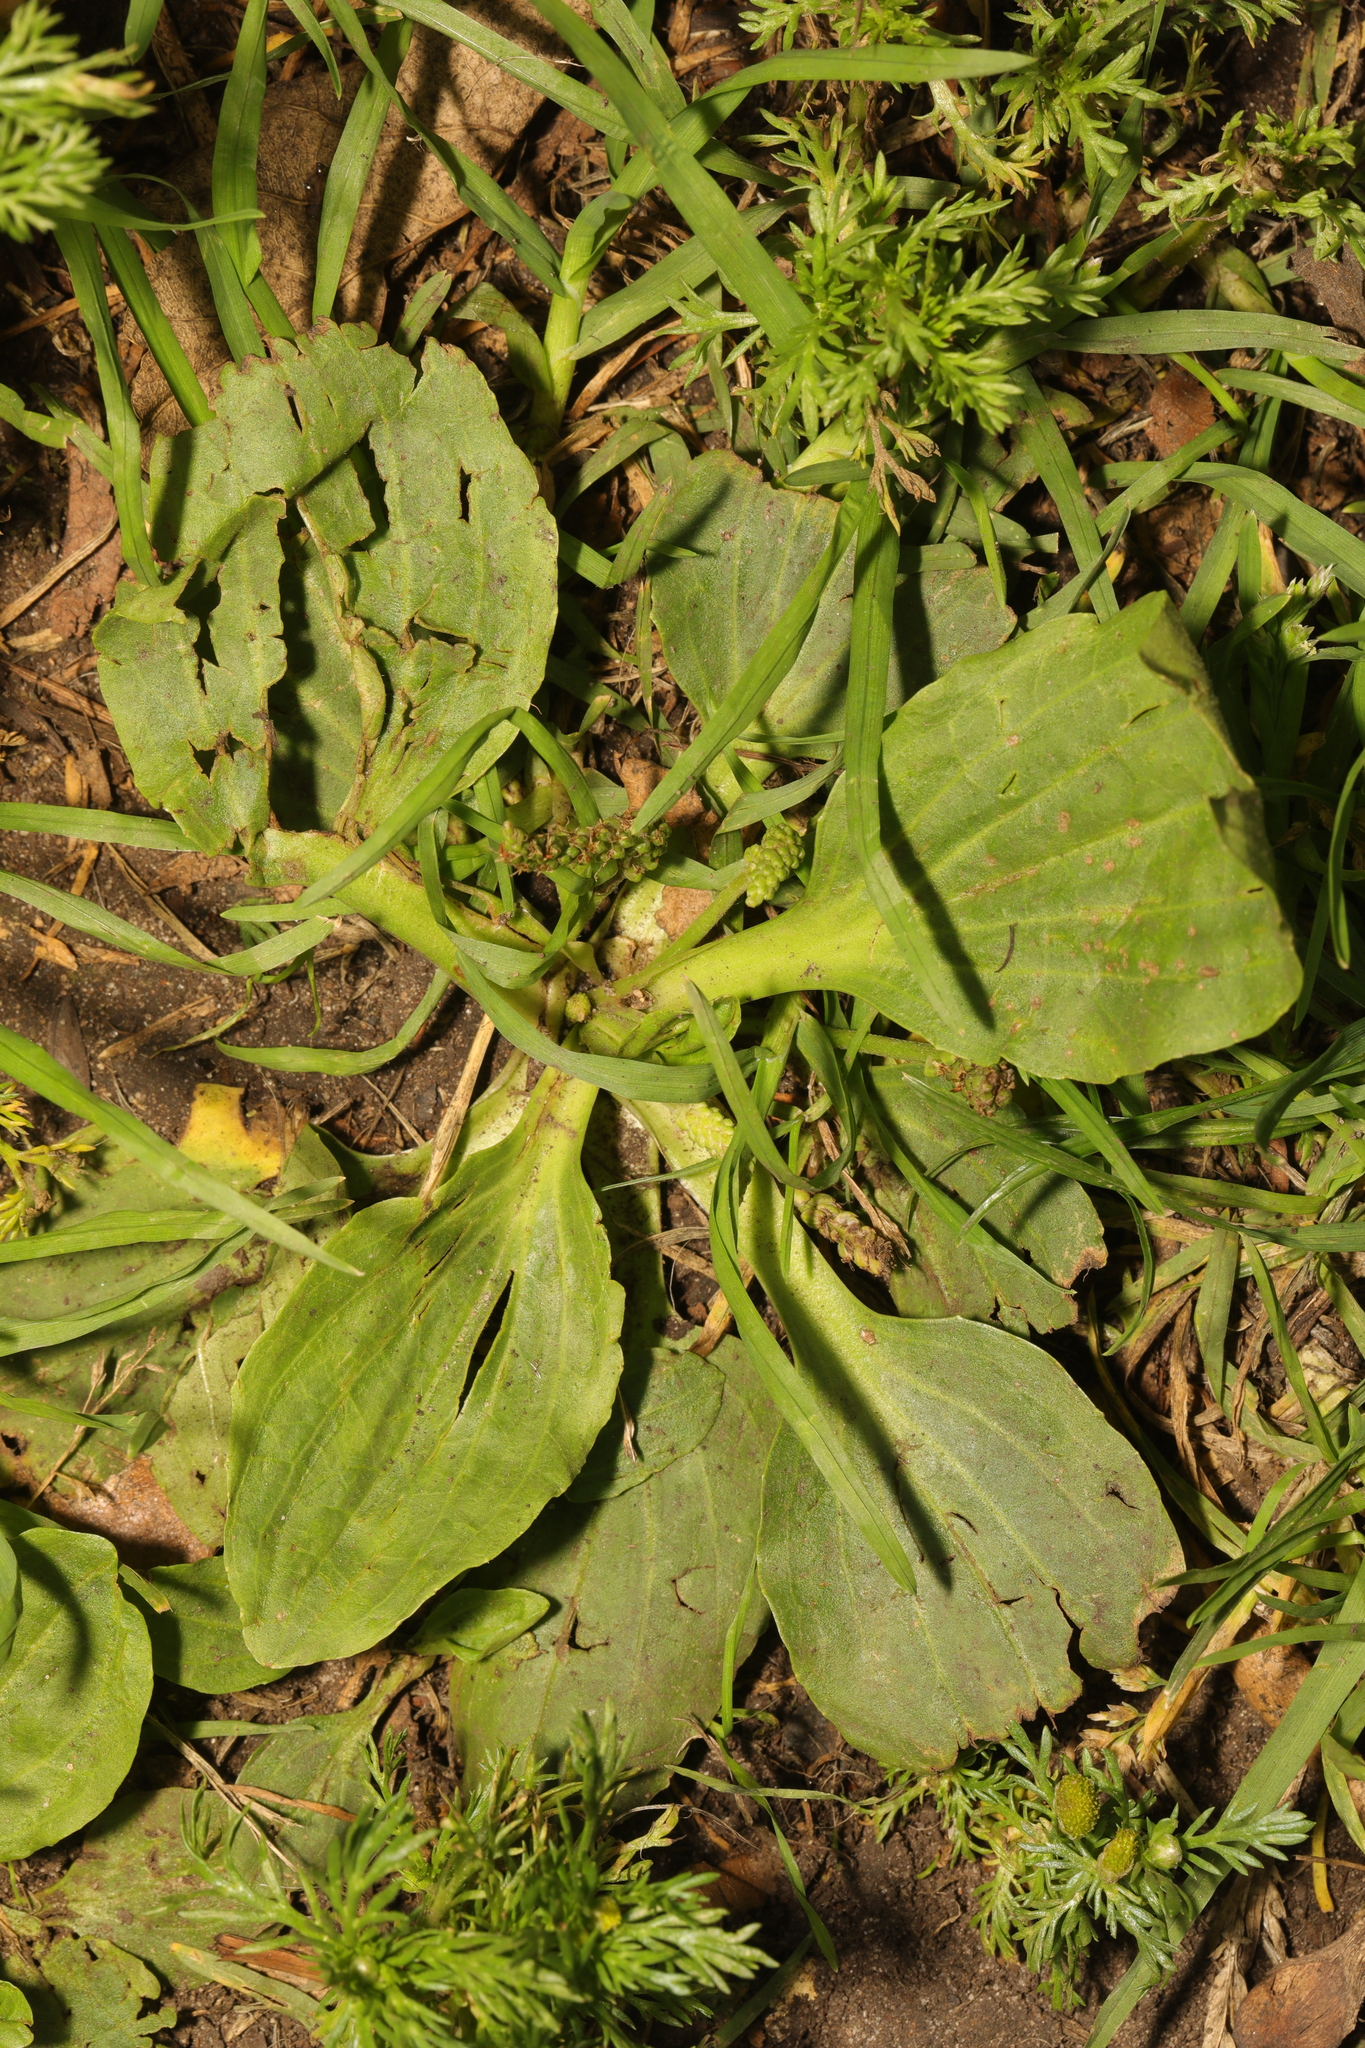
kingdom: Plantae
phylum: Tracheophyta
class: Magnoliopsida
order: Lamiales
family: Plantaginaceae
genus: Plantago
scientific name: Plantago major
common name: Common plantain
